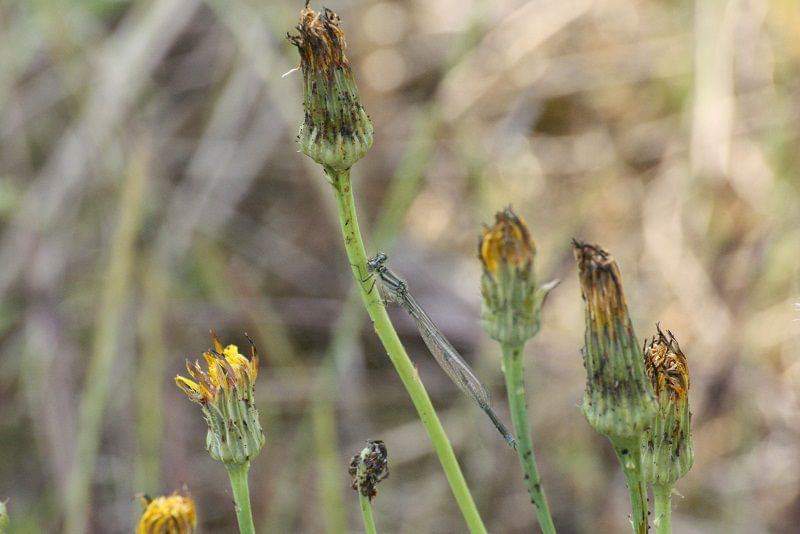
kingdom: Animalia
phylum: Arthropoda
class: Insecta
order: Odonata
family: Coenagrionidae
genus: Erythromma
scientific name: Erythromma lindenii
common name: Blue-eye
